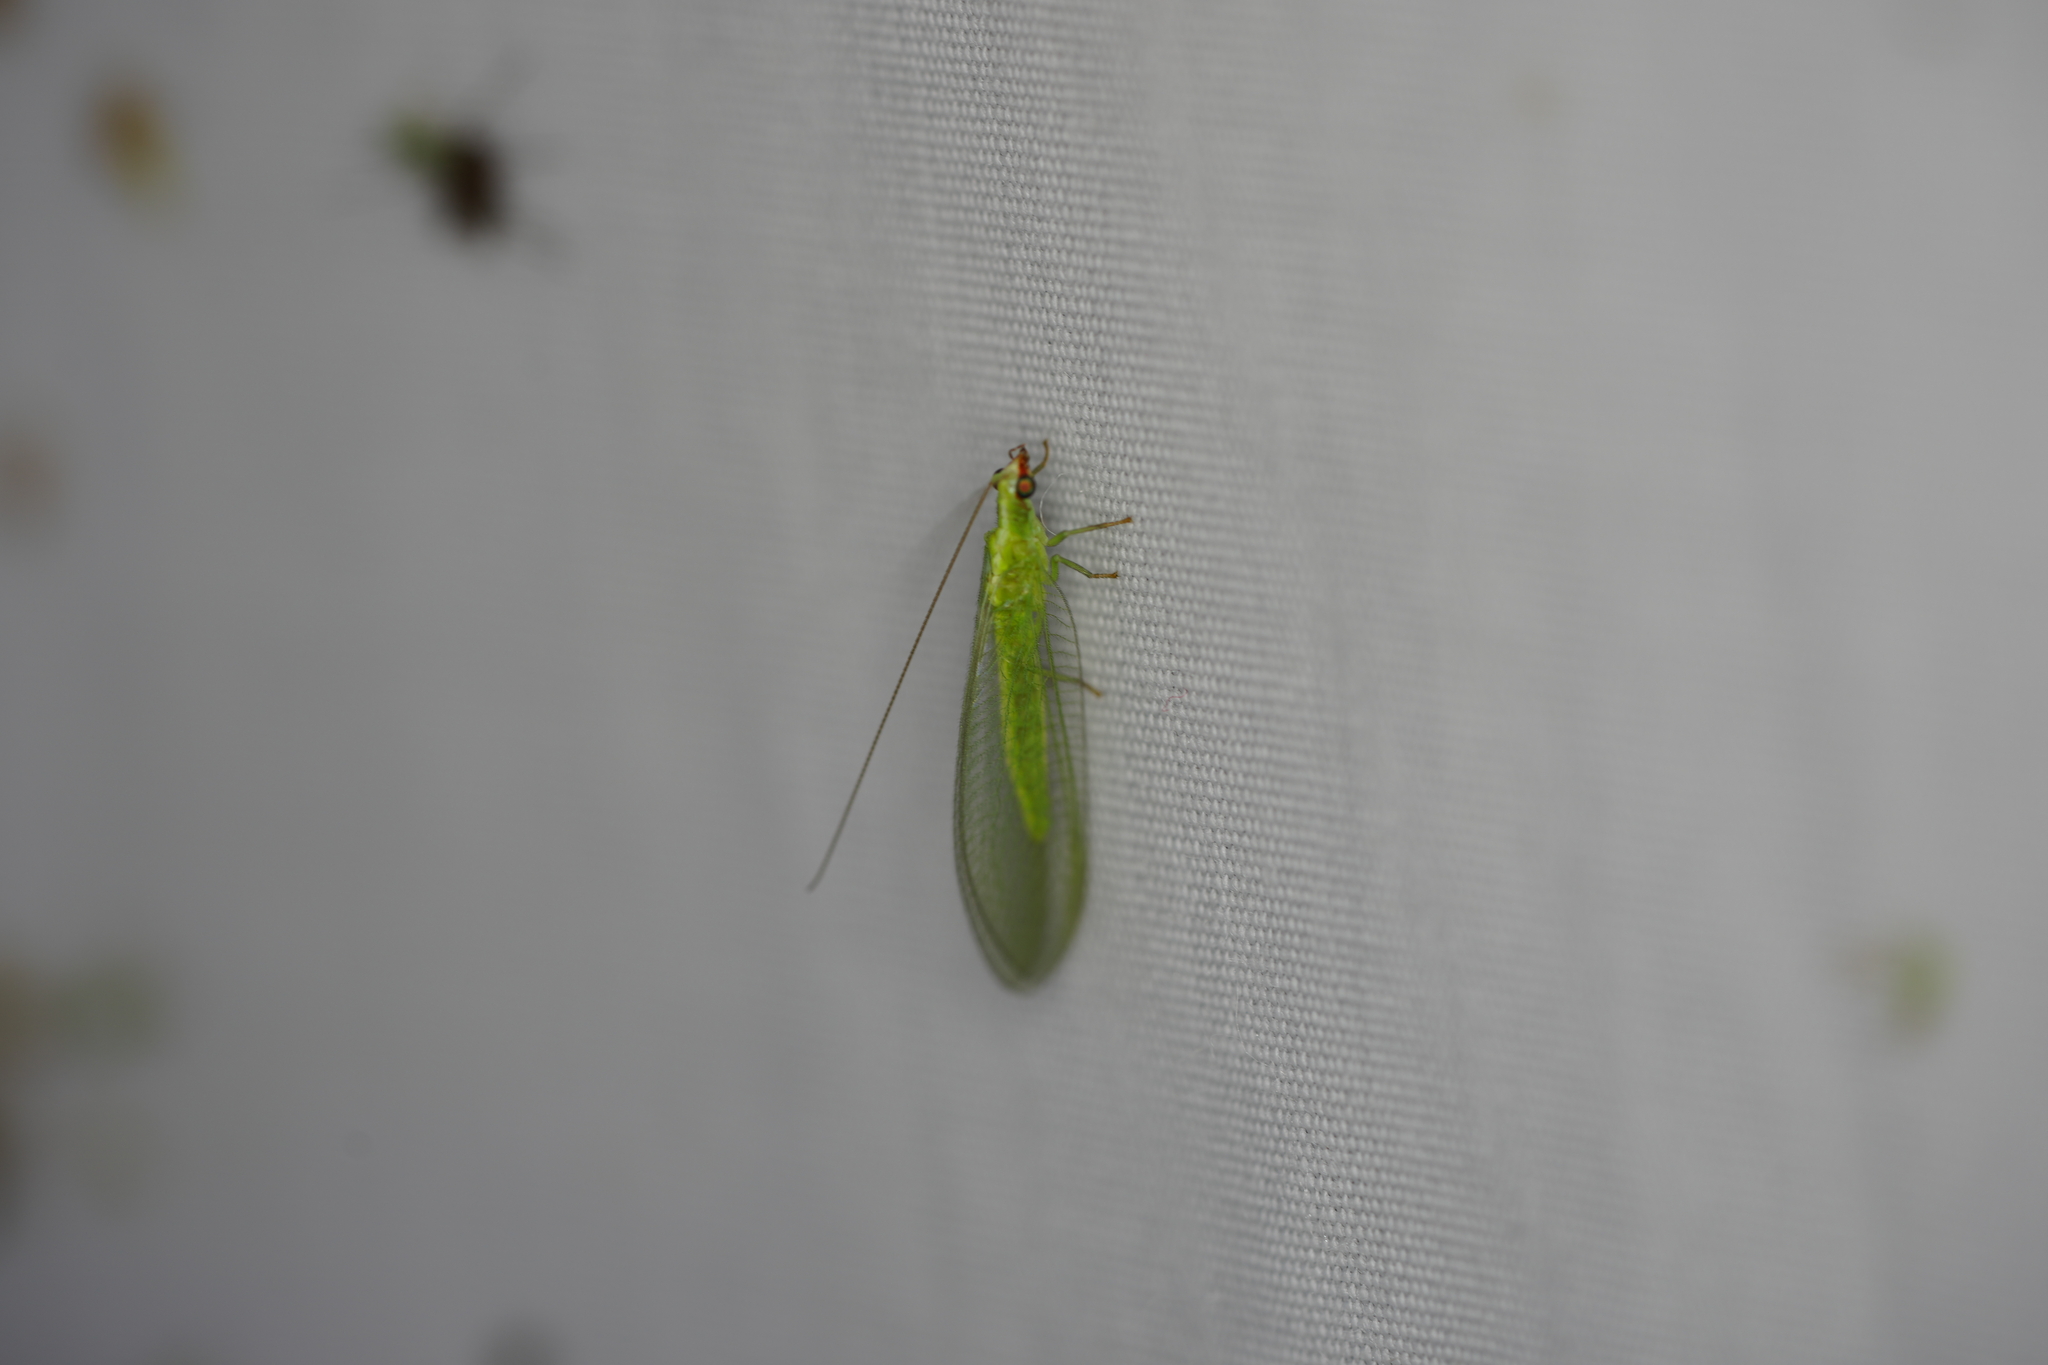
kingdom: Animalia
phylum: Arthropoda
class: Insecta
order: Neuroptera
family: Chrysopidae
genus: Chrysoperla
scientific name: Chrysoperla rufilabris
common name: Red-lipped green lacewing
